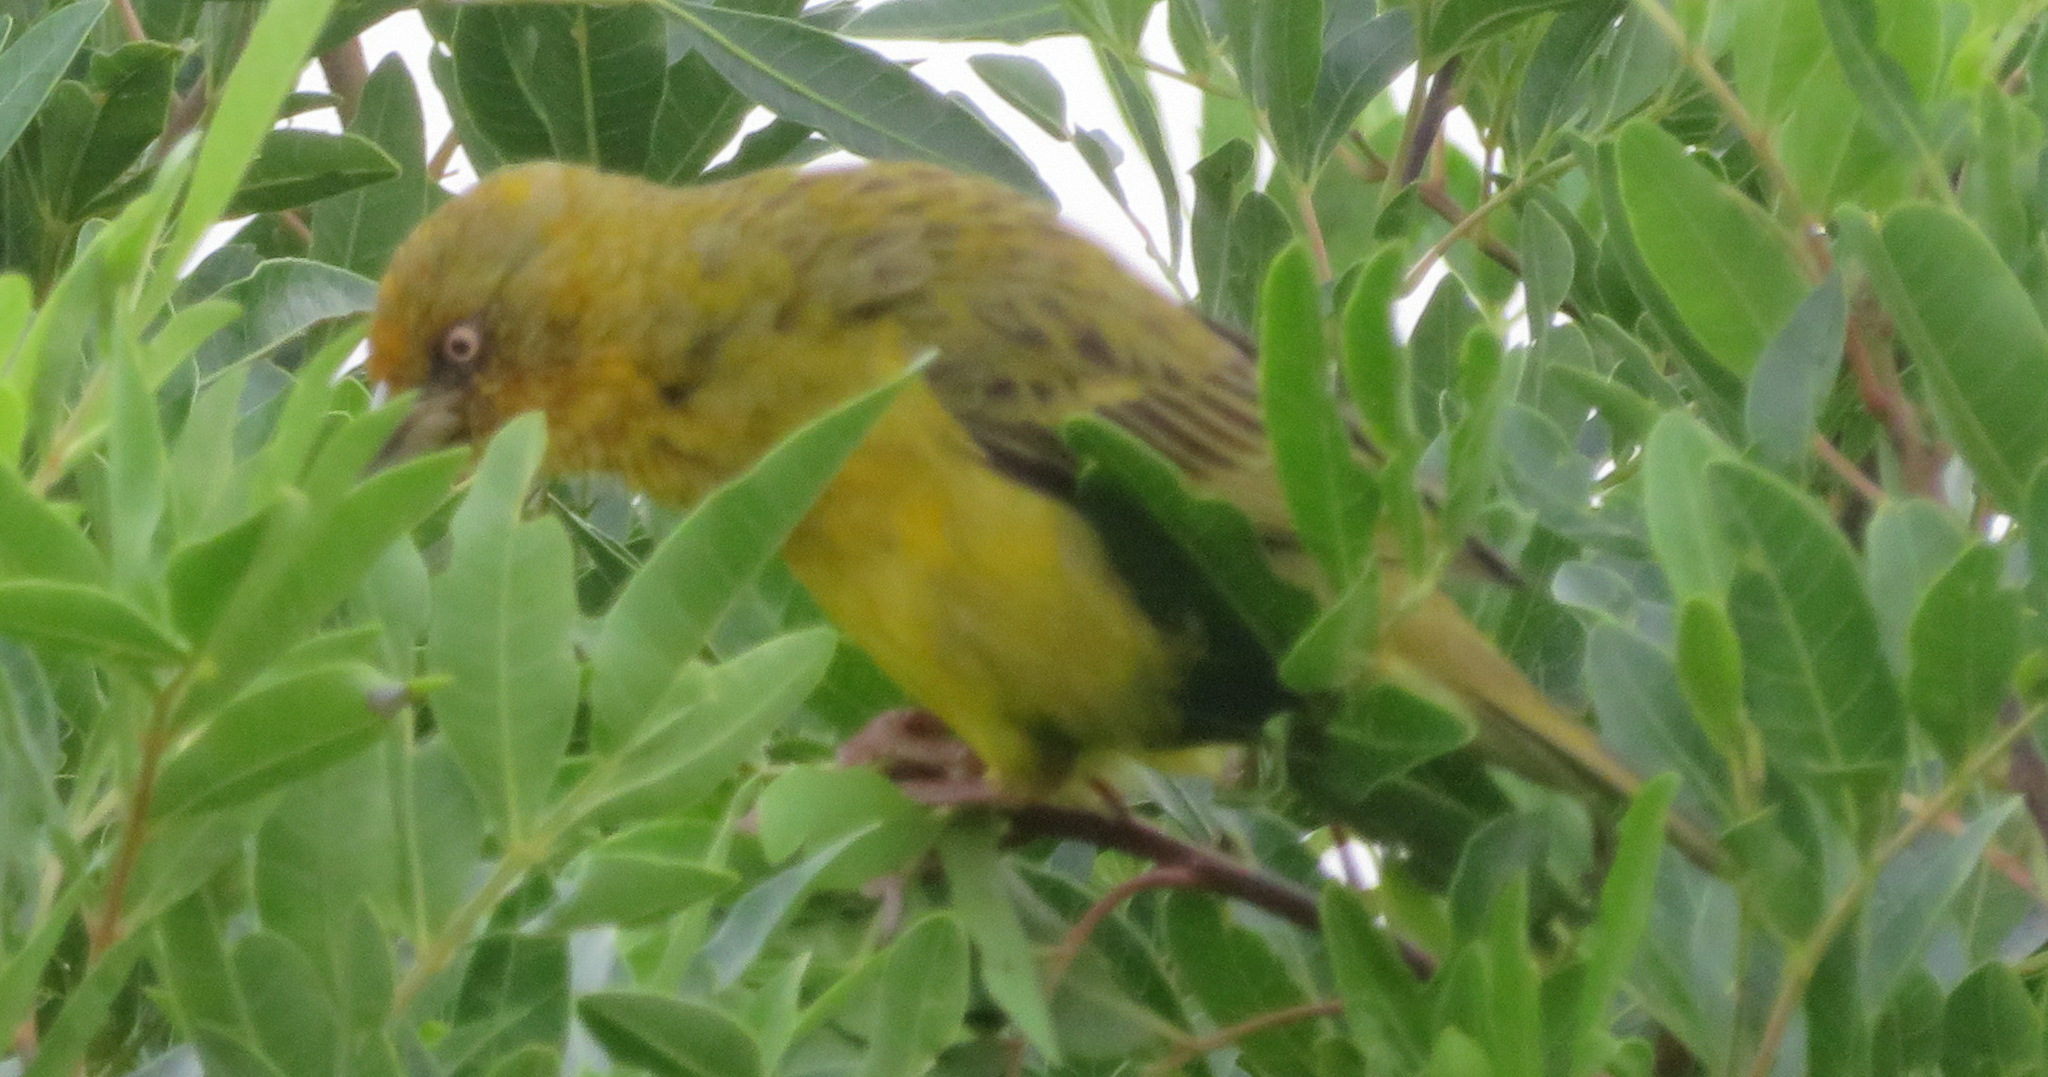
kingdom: Animalia
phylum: Chordata
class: Aves
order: Passeriformes
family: Ploceidae
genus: Ploceus
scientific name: Ploceus capensis
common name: Cape weaver
